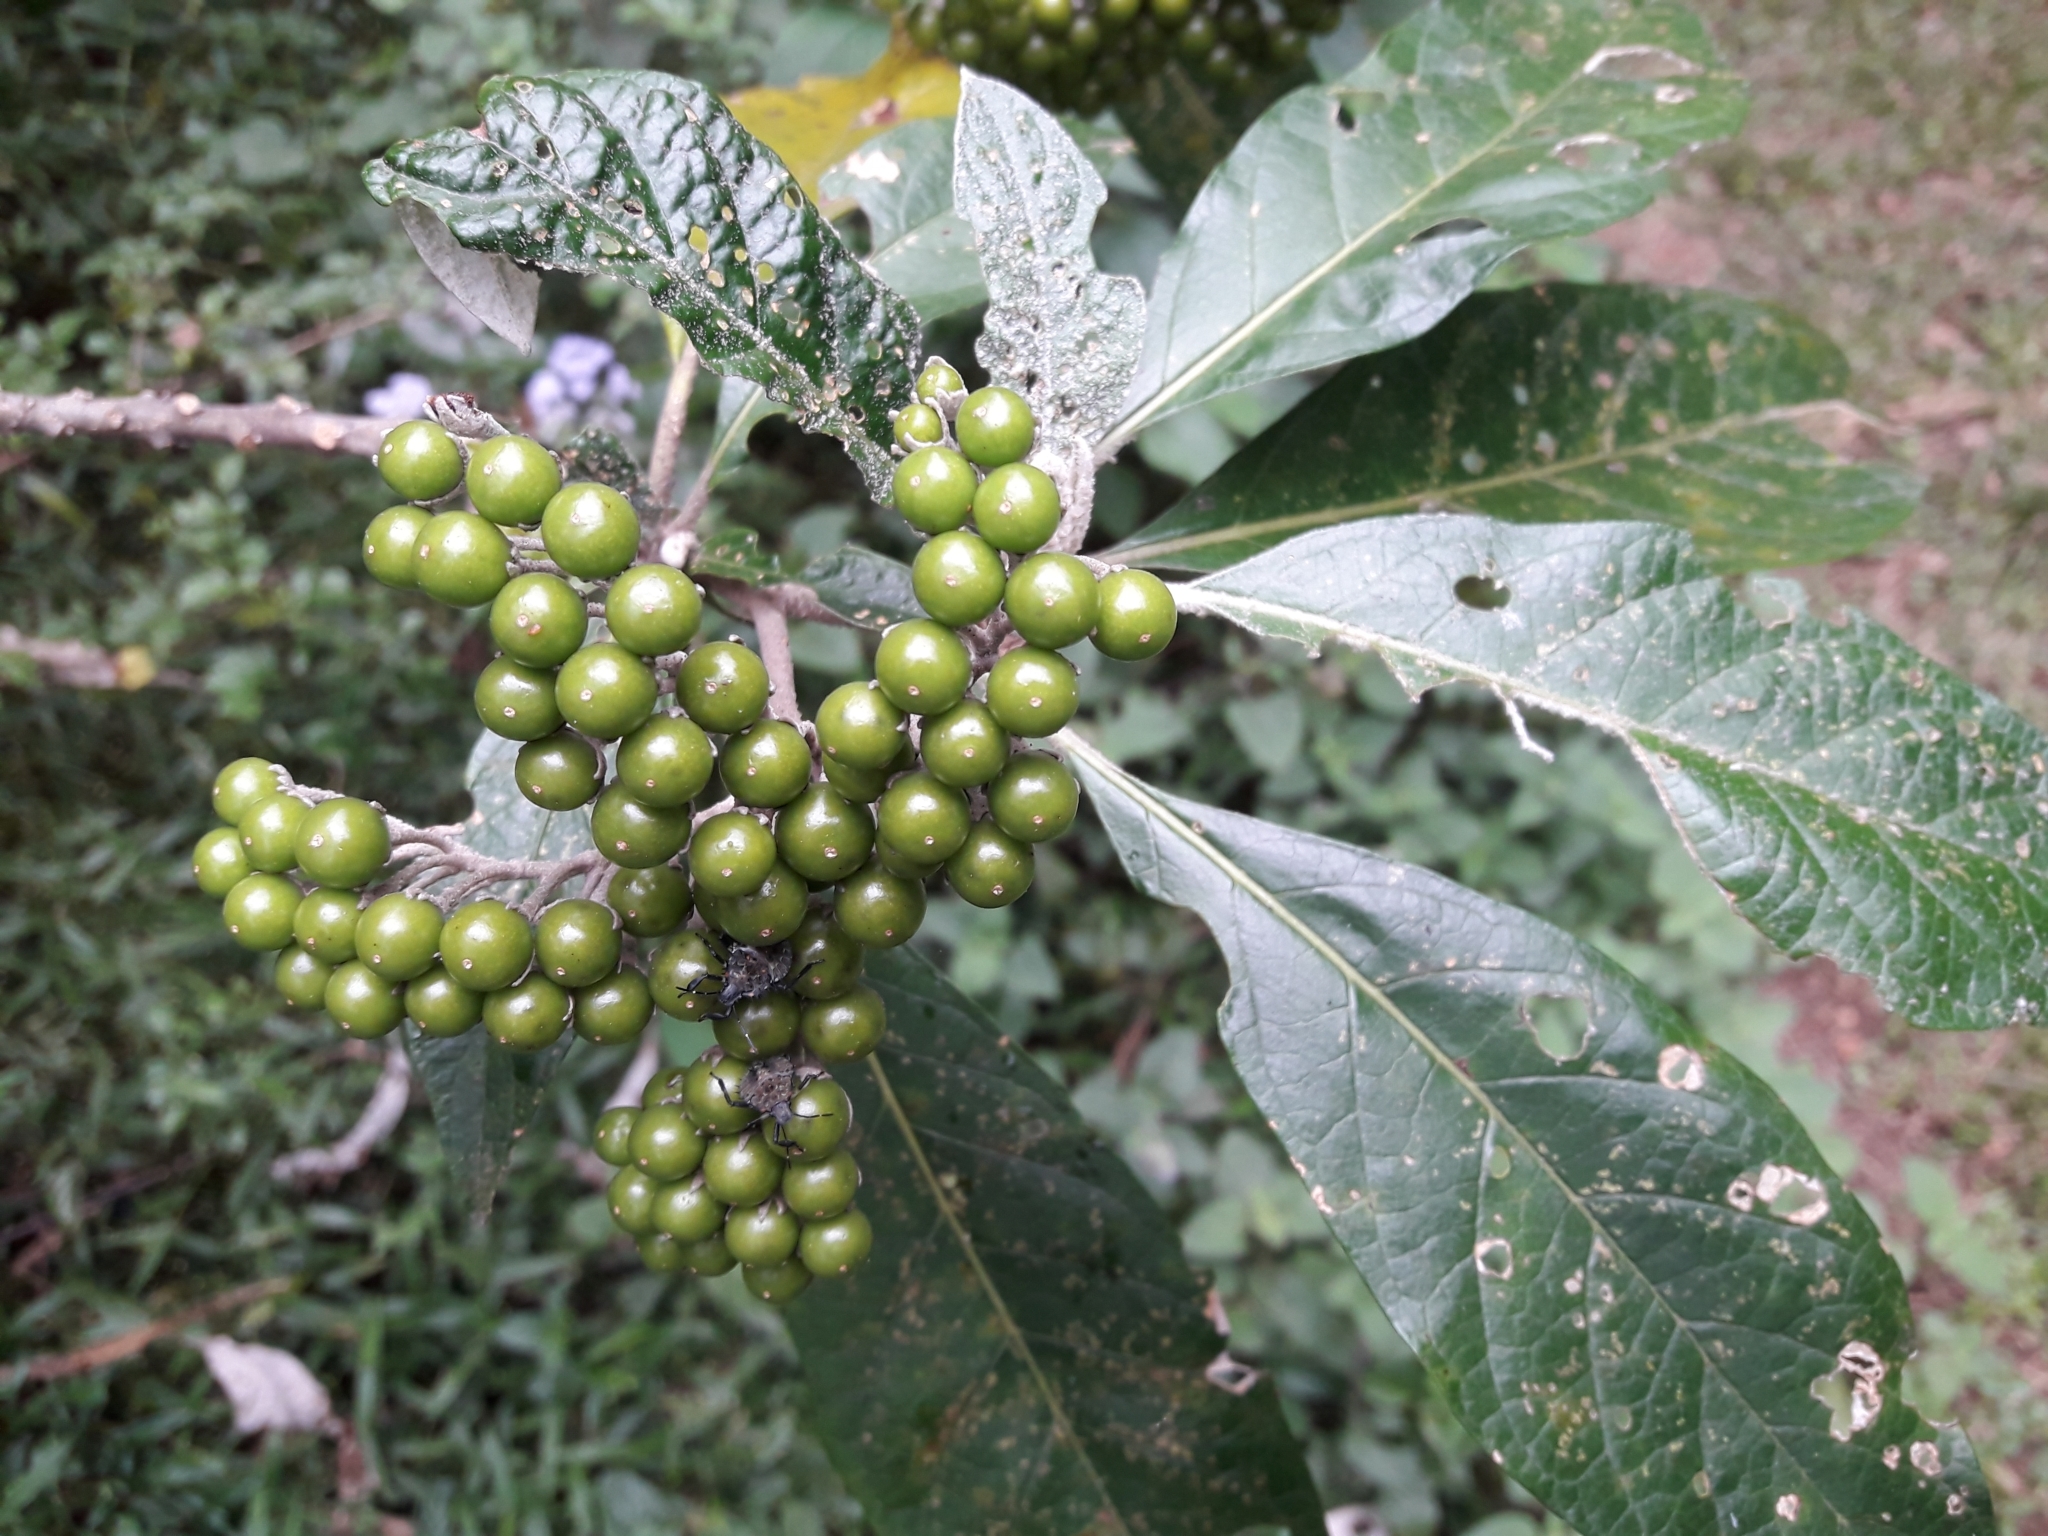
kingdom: Plantae
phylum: Tracheophyta
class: Magnoliopsida
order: Solanales
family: Solanaceae
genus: Solanum
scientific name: Solanum giganteum
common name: Healing-leaf-tree
